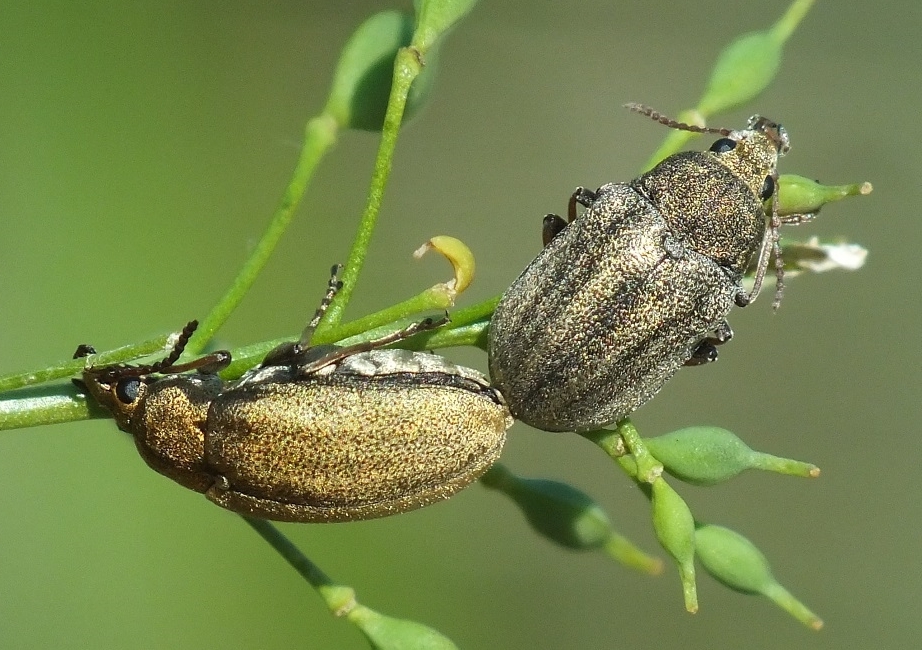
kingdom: Animalia
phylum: Arthropoda
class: Insecta
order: Coleoptera
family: Mycteridae
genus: Mycterus
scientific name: Mycterus tibialis
